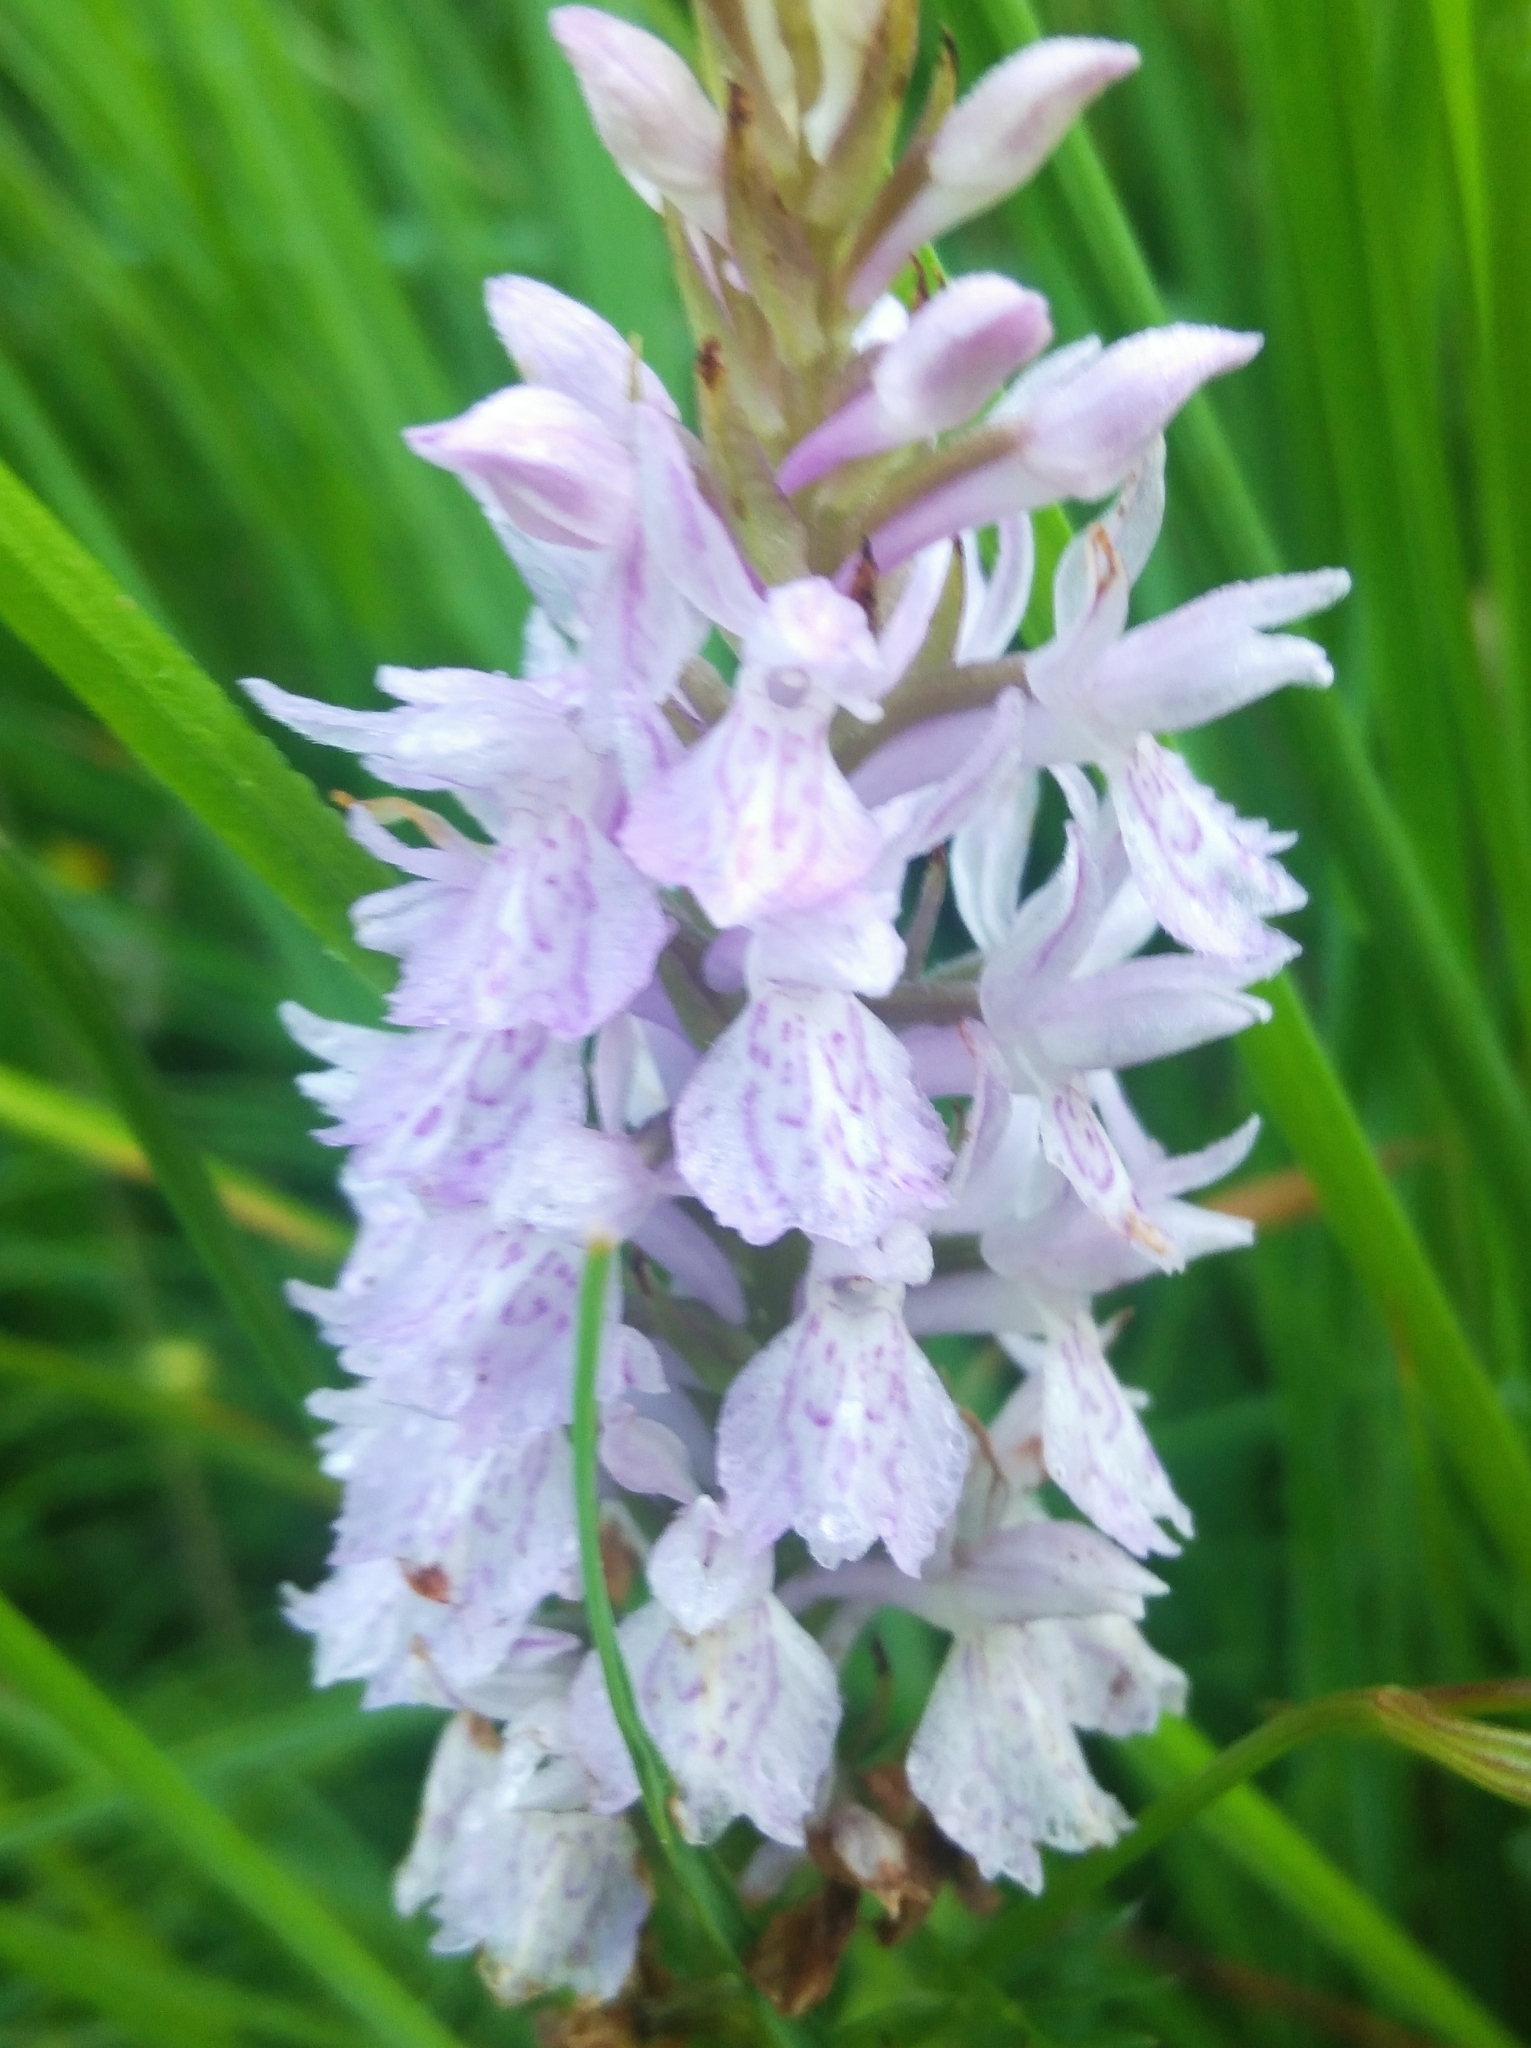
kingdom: Plantae
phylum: Tracheophyta
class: Liliopsida
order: Asparagales
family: Orchidaceae
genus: Dactylorhiza
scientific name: Dactylorhiza maculata
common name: Heath spotted-orchid
